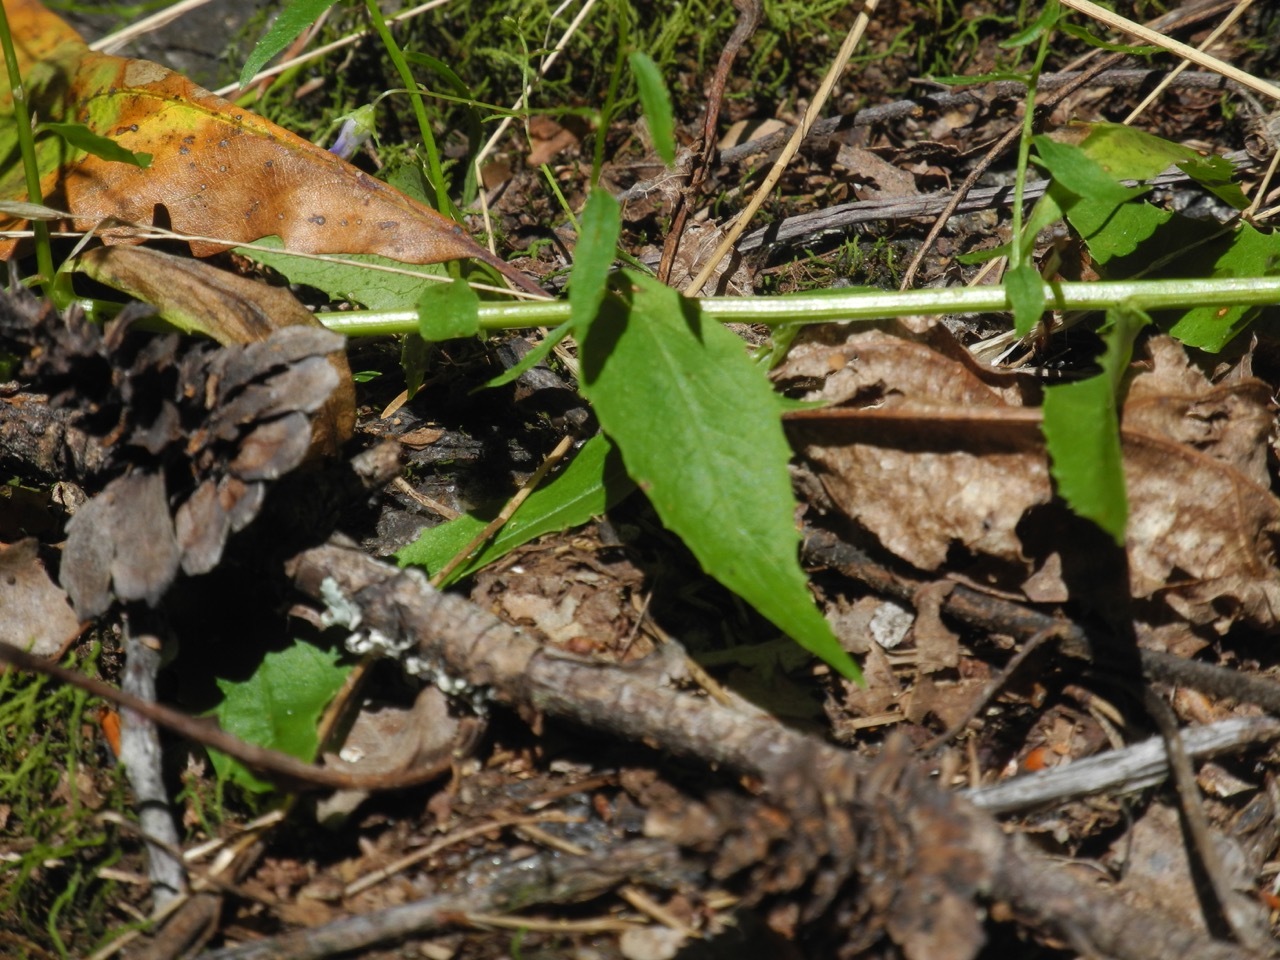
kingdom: Plantae
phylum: Tracheophyta
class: Magnoliopsida
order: Asterales
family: Campanulaceae
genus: Campanula
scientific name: Campanula divaricata
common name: Appalachian bellflower
